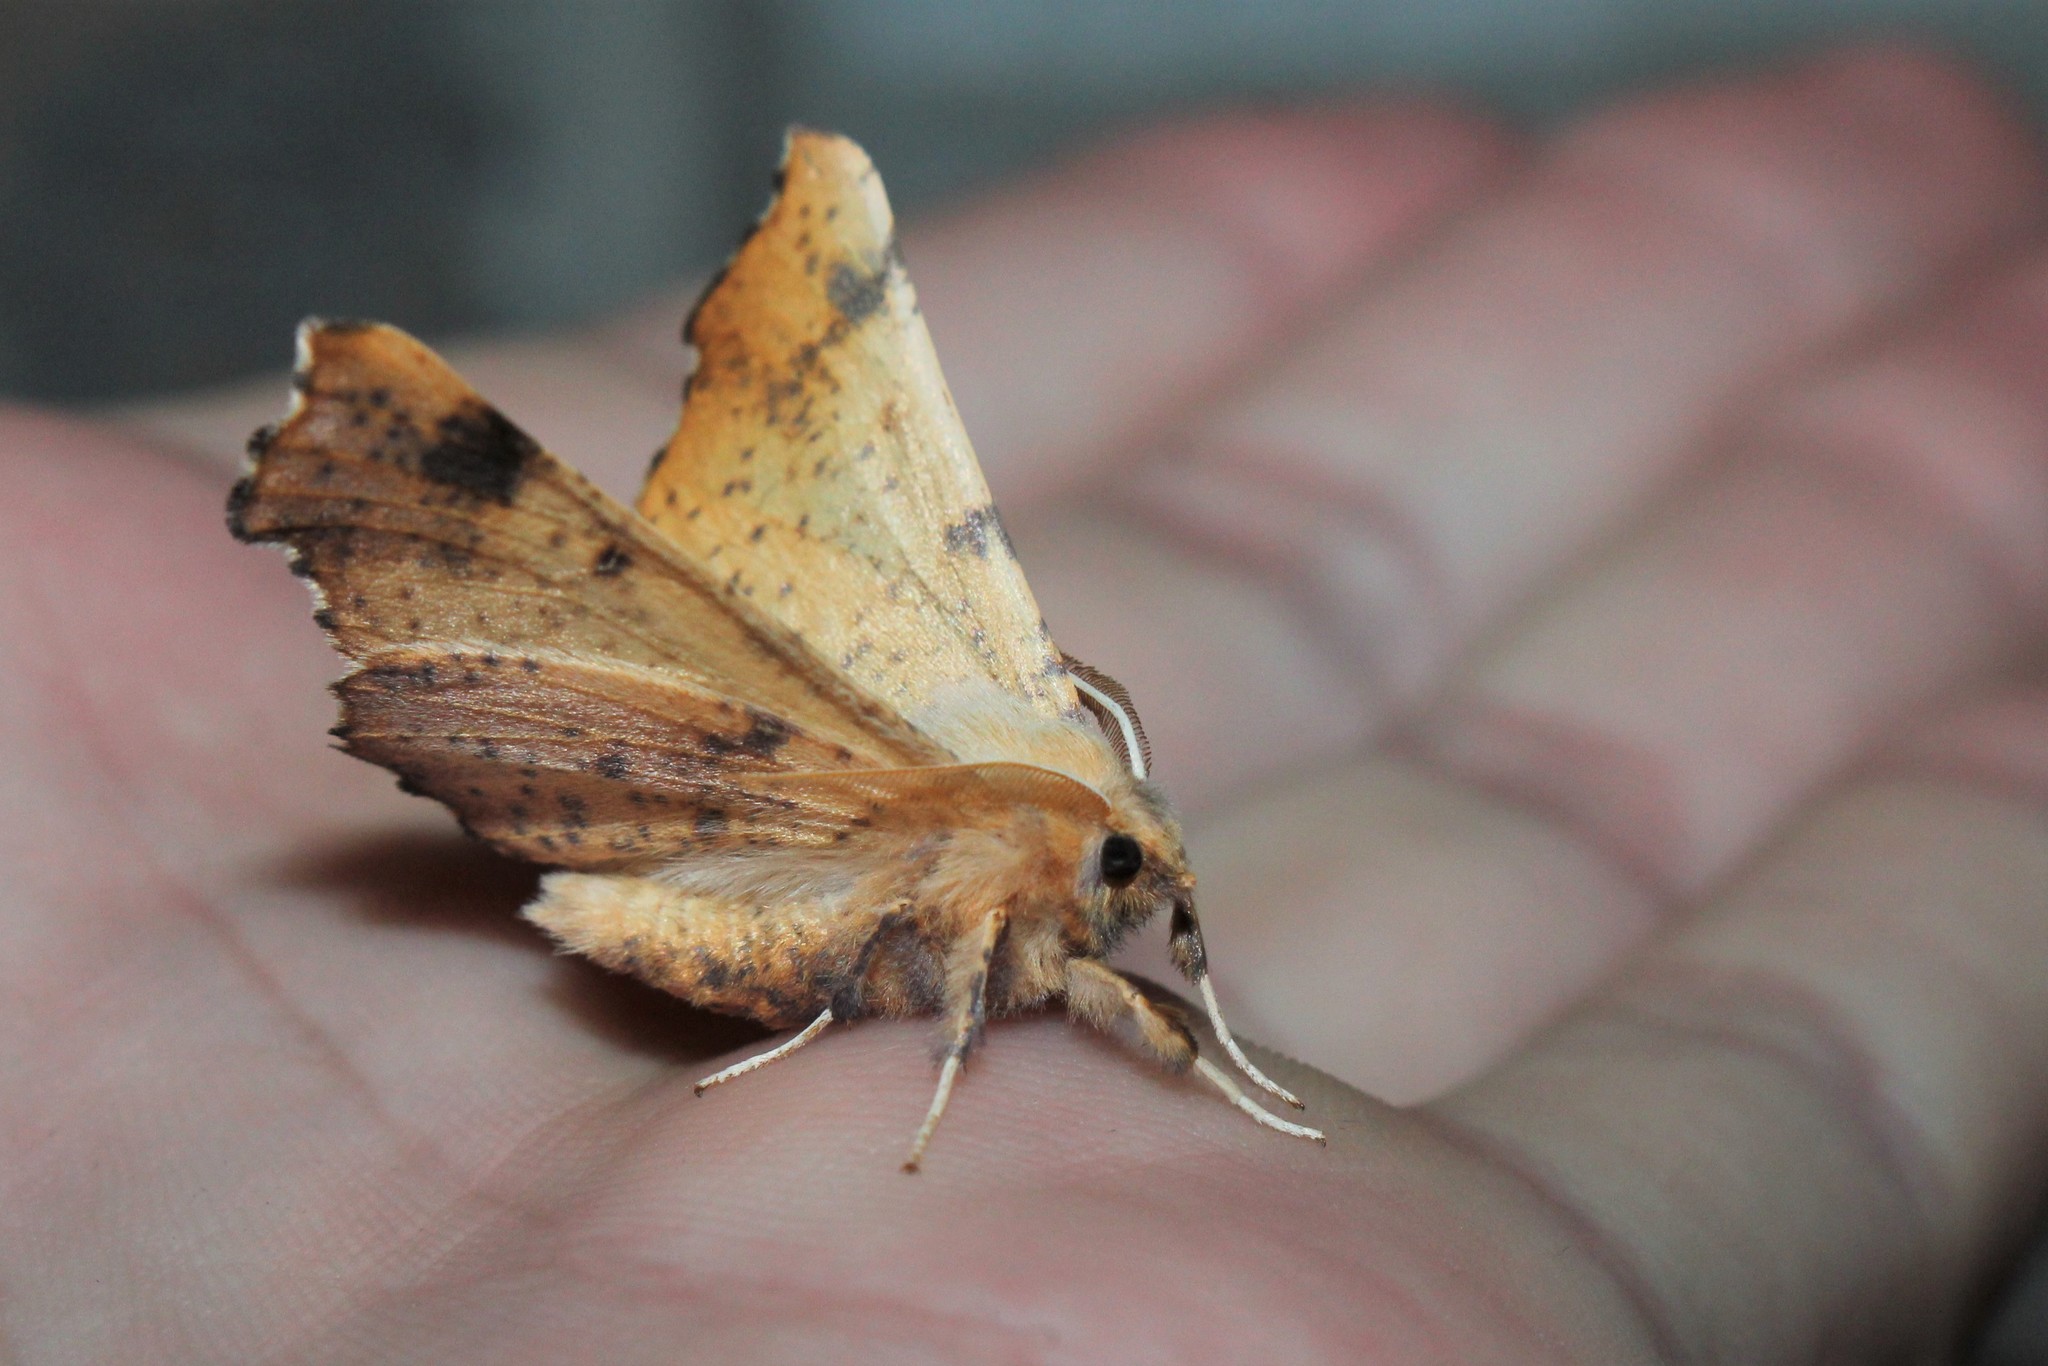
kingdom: Animalia
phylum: Arthropoda
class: Insecta
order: Lepidoptera
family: Geometridae
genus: Ennomos
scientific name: Ennomos magnaria
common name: Maple spanworm
